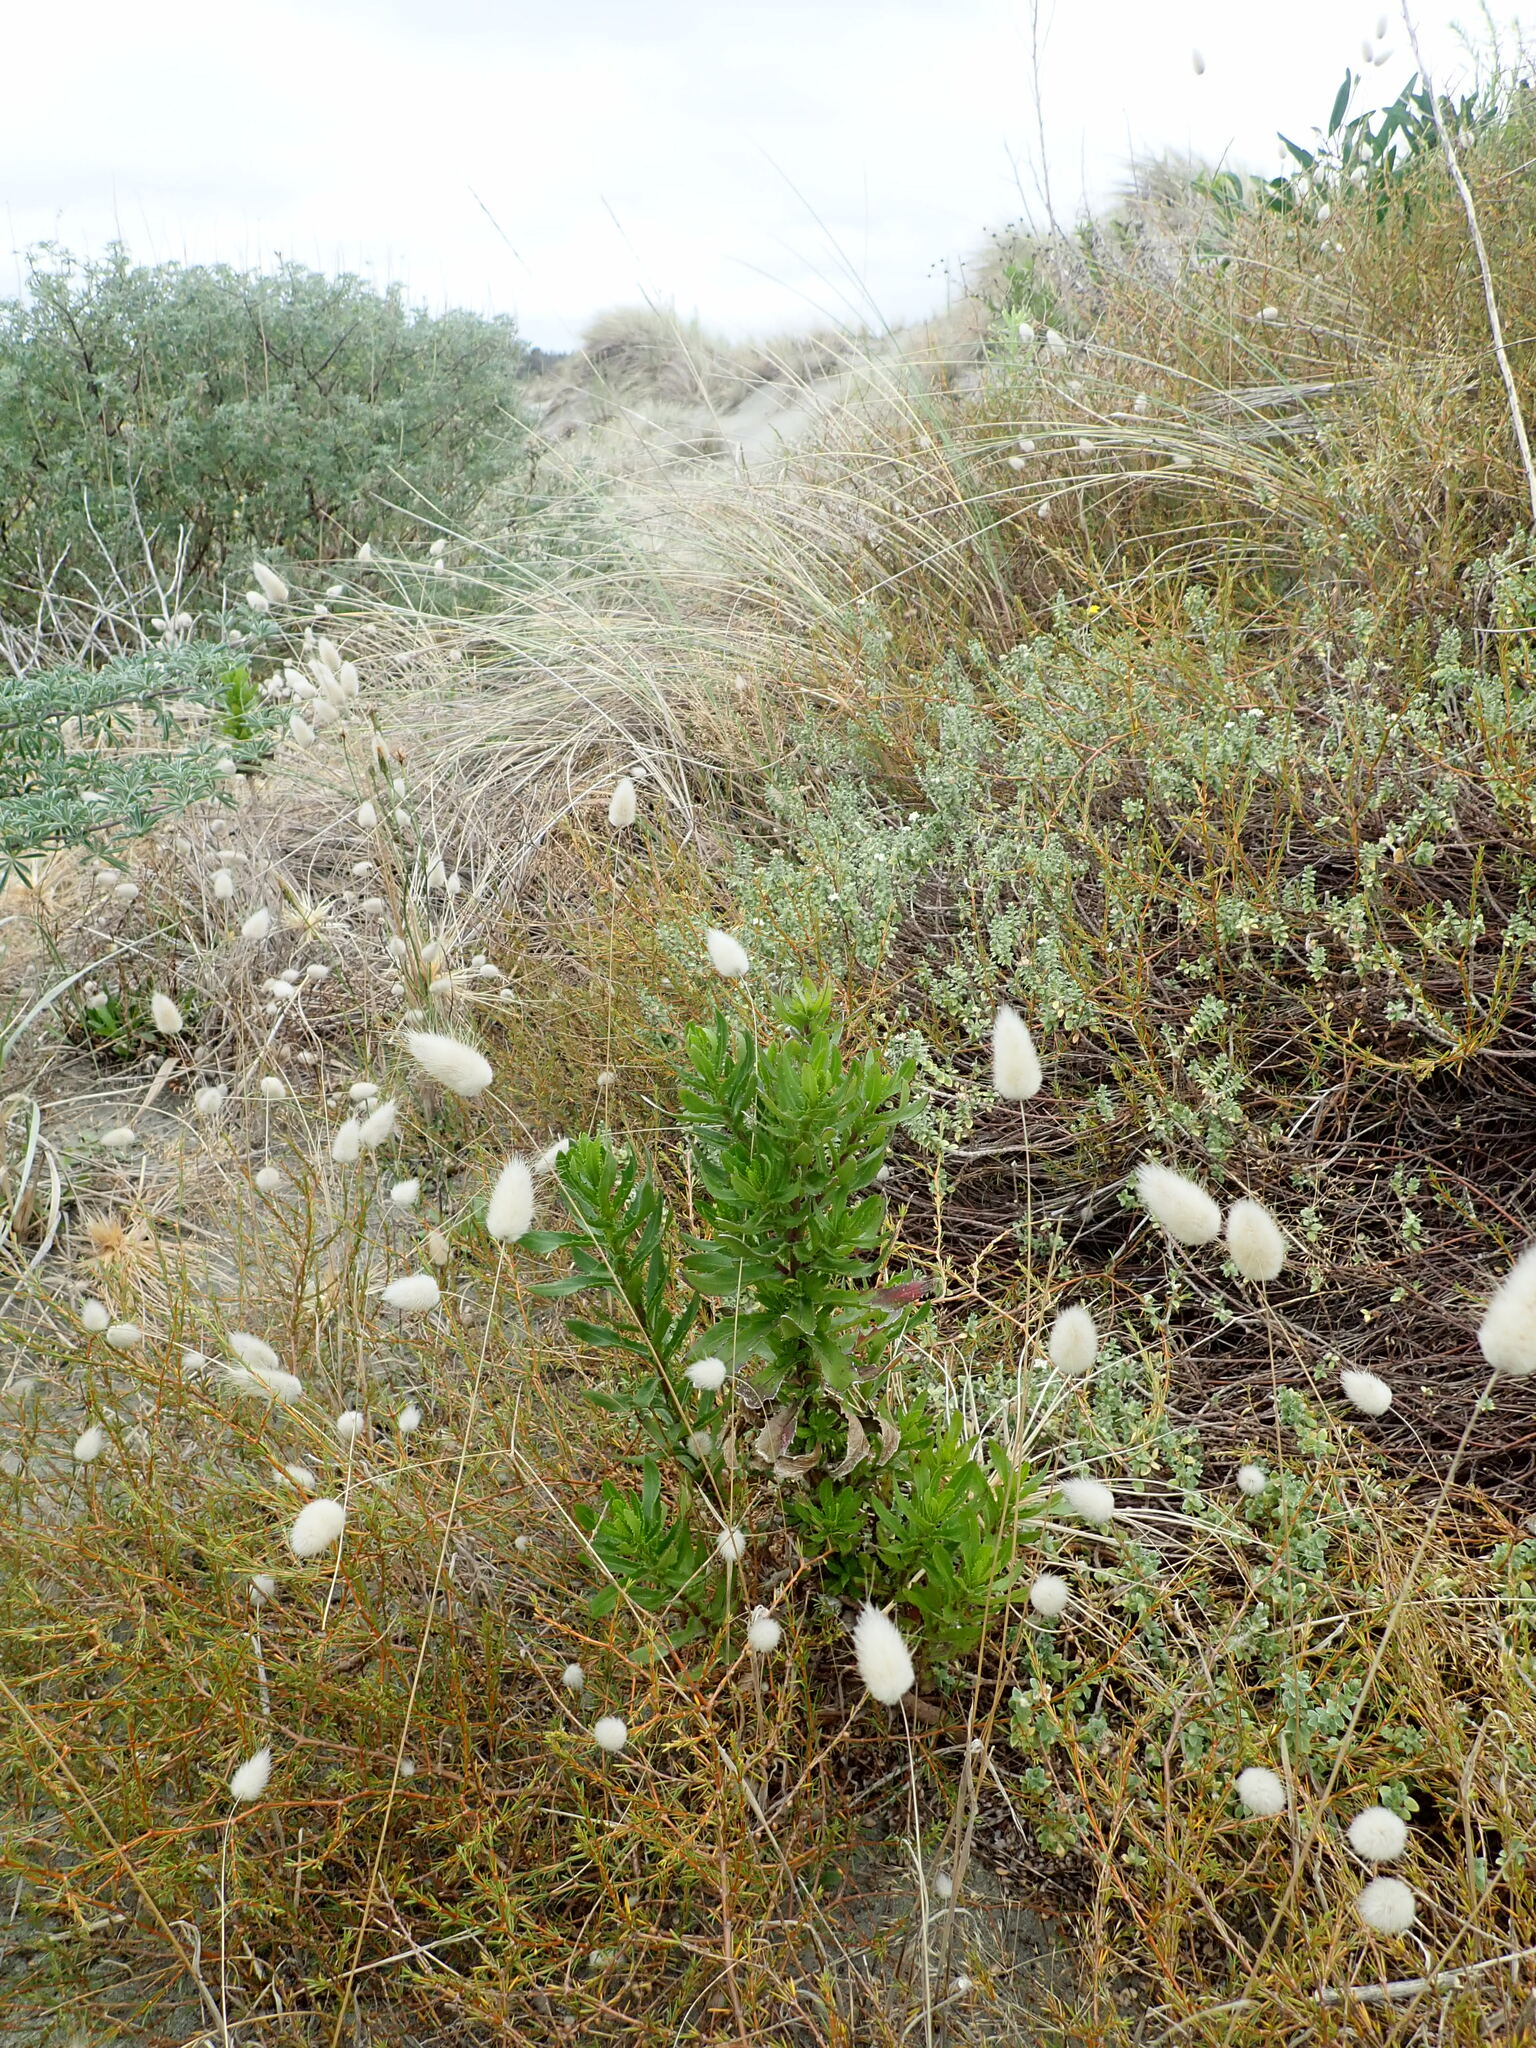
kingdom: Plantae
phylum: Tracheophyta
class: Magnoliopsida
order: Gentianales
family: Rubiaceae
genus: Coprosma
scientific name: Coprosma acerosa
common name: Sand coprosma
